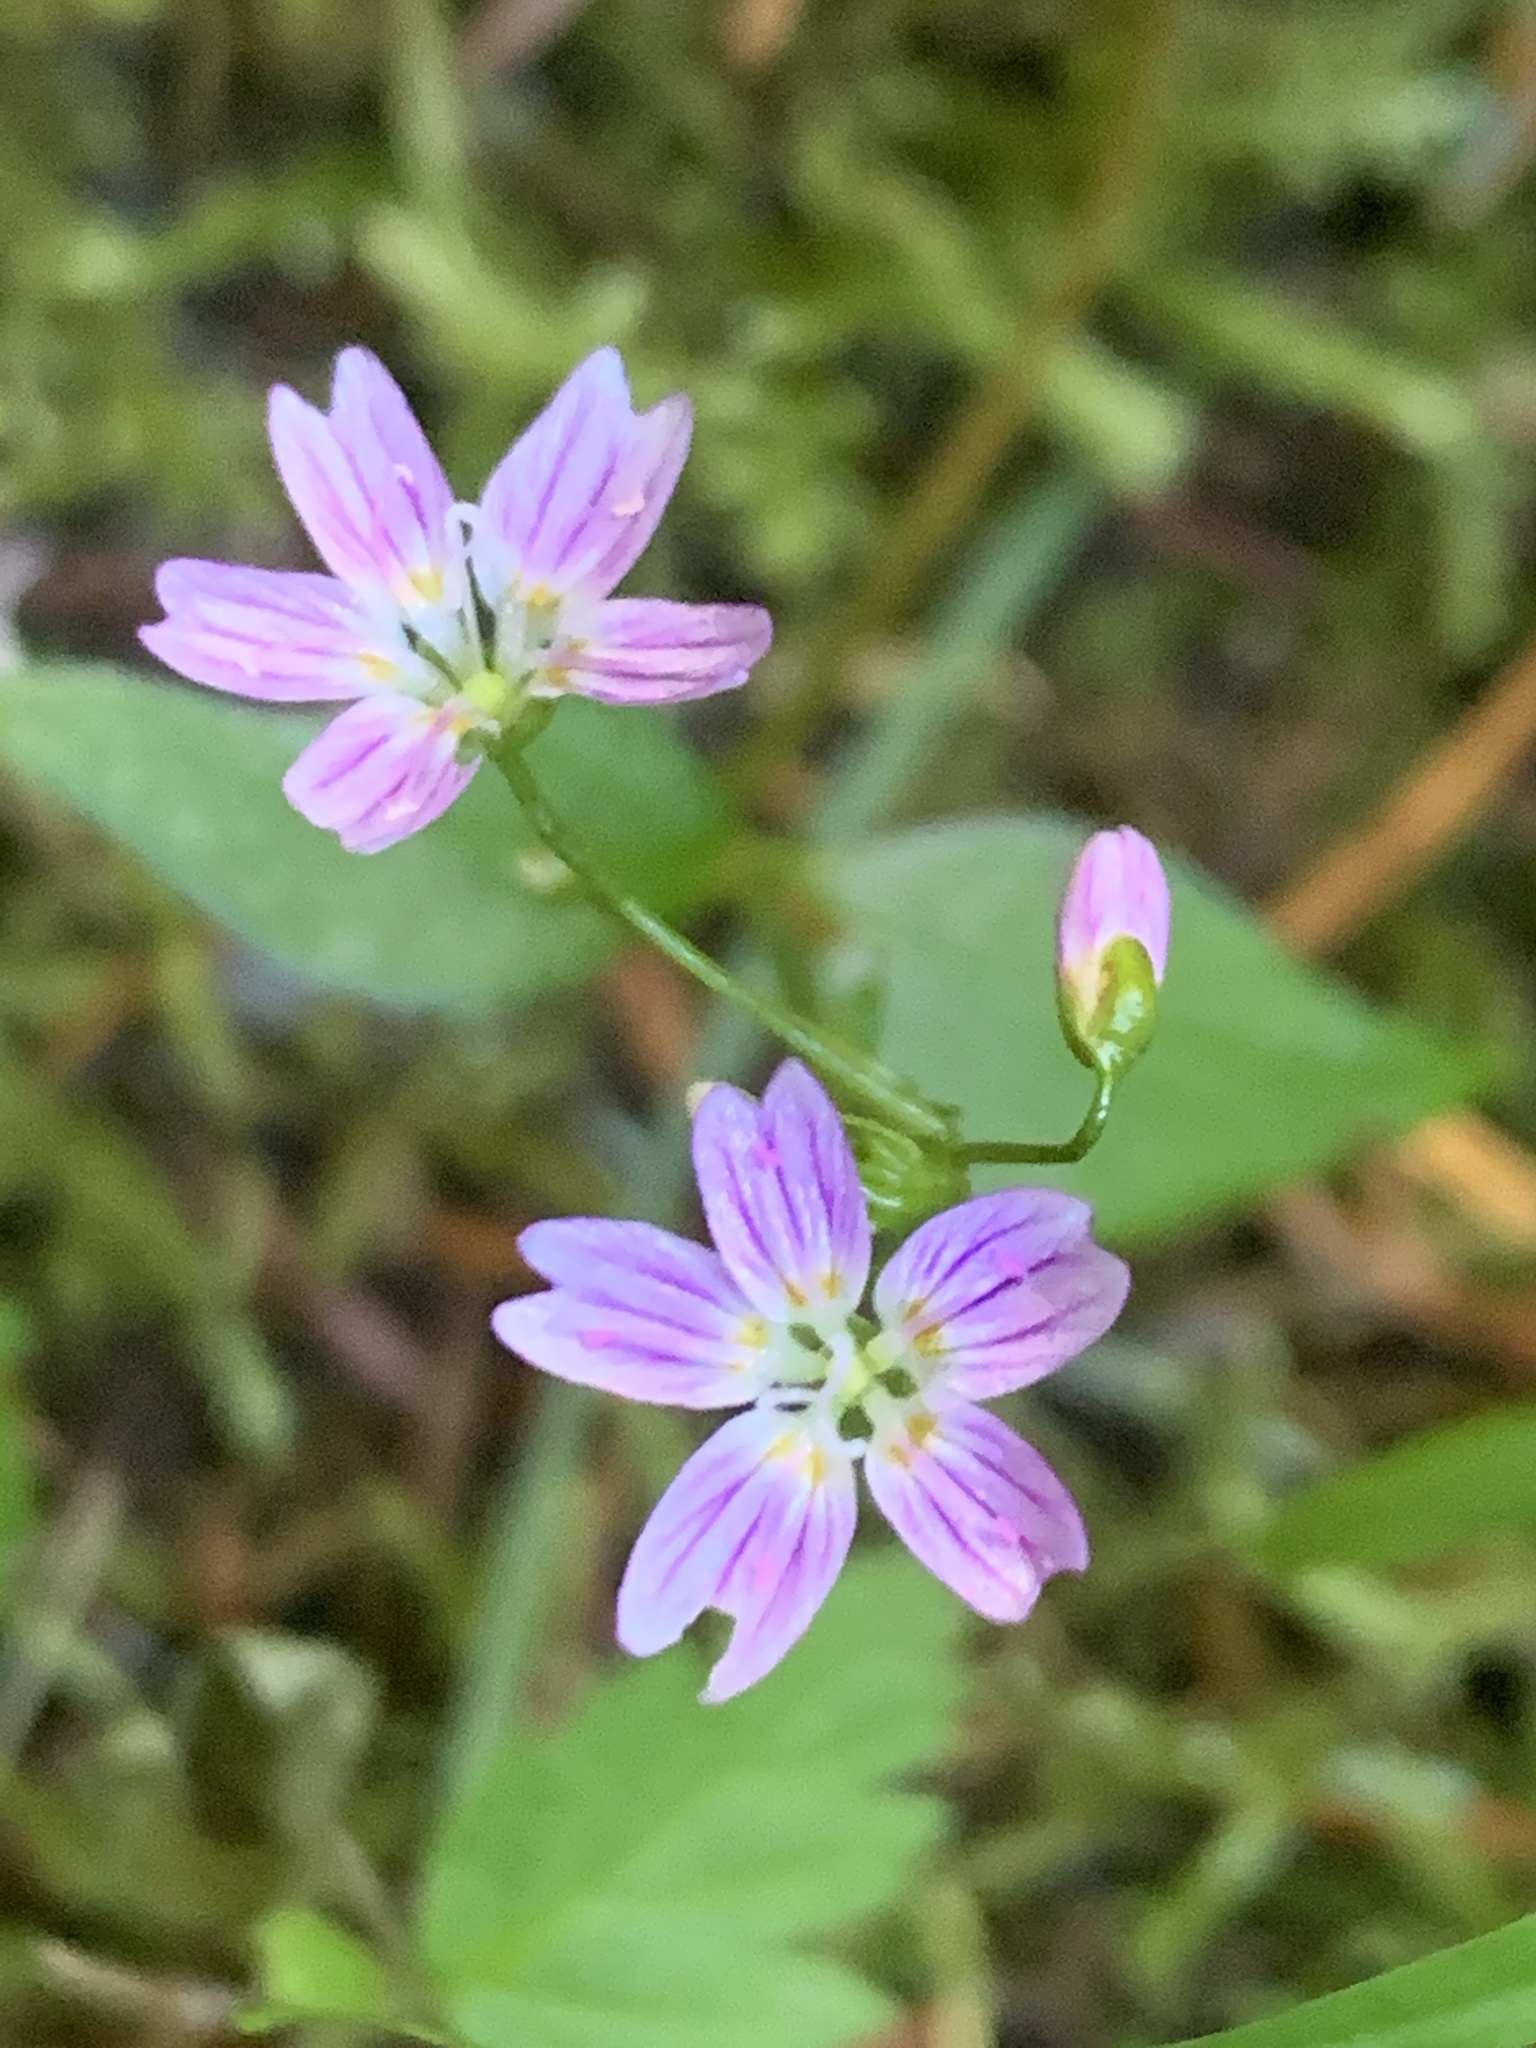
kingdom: Plantae
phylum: Tracheophyta
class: Magnoliopsida
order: Caryophyllales
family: Montiaceae
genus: Claytonia
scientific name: Claytonia sibirica
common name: Pink purslane
